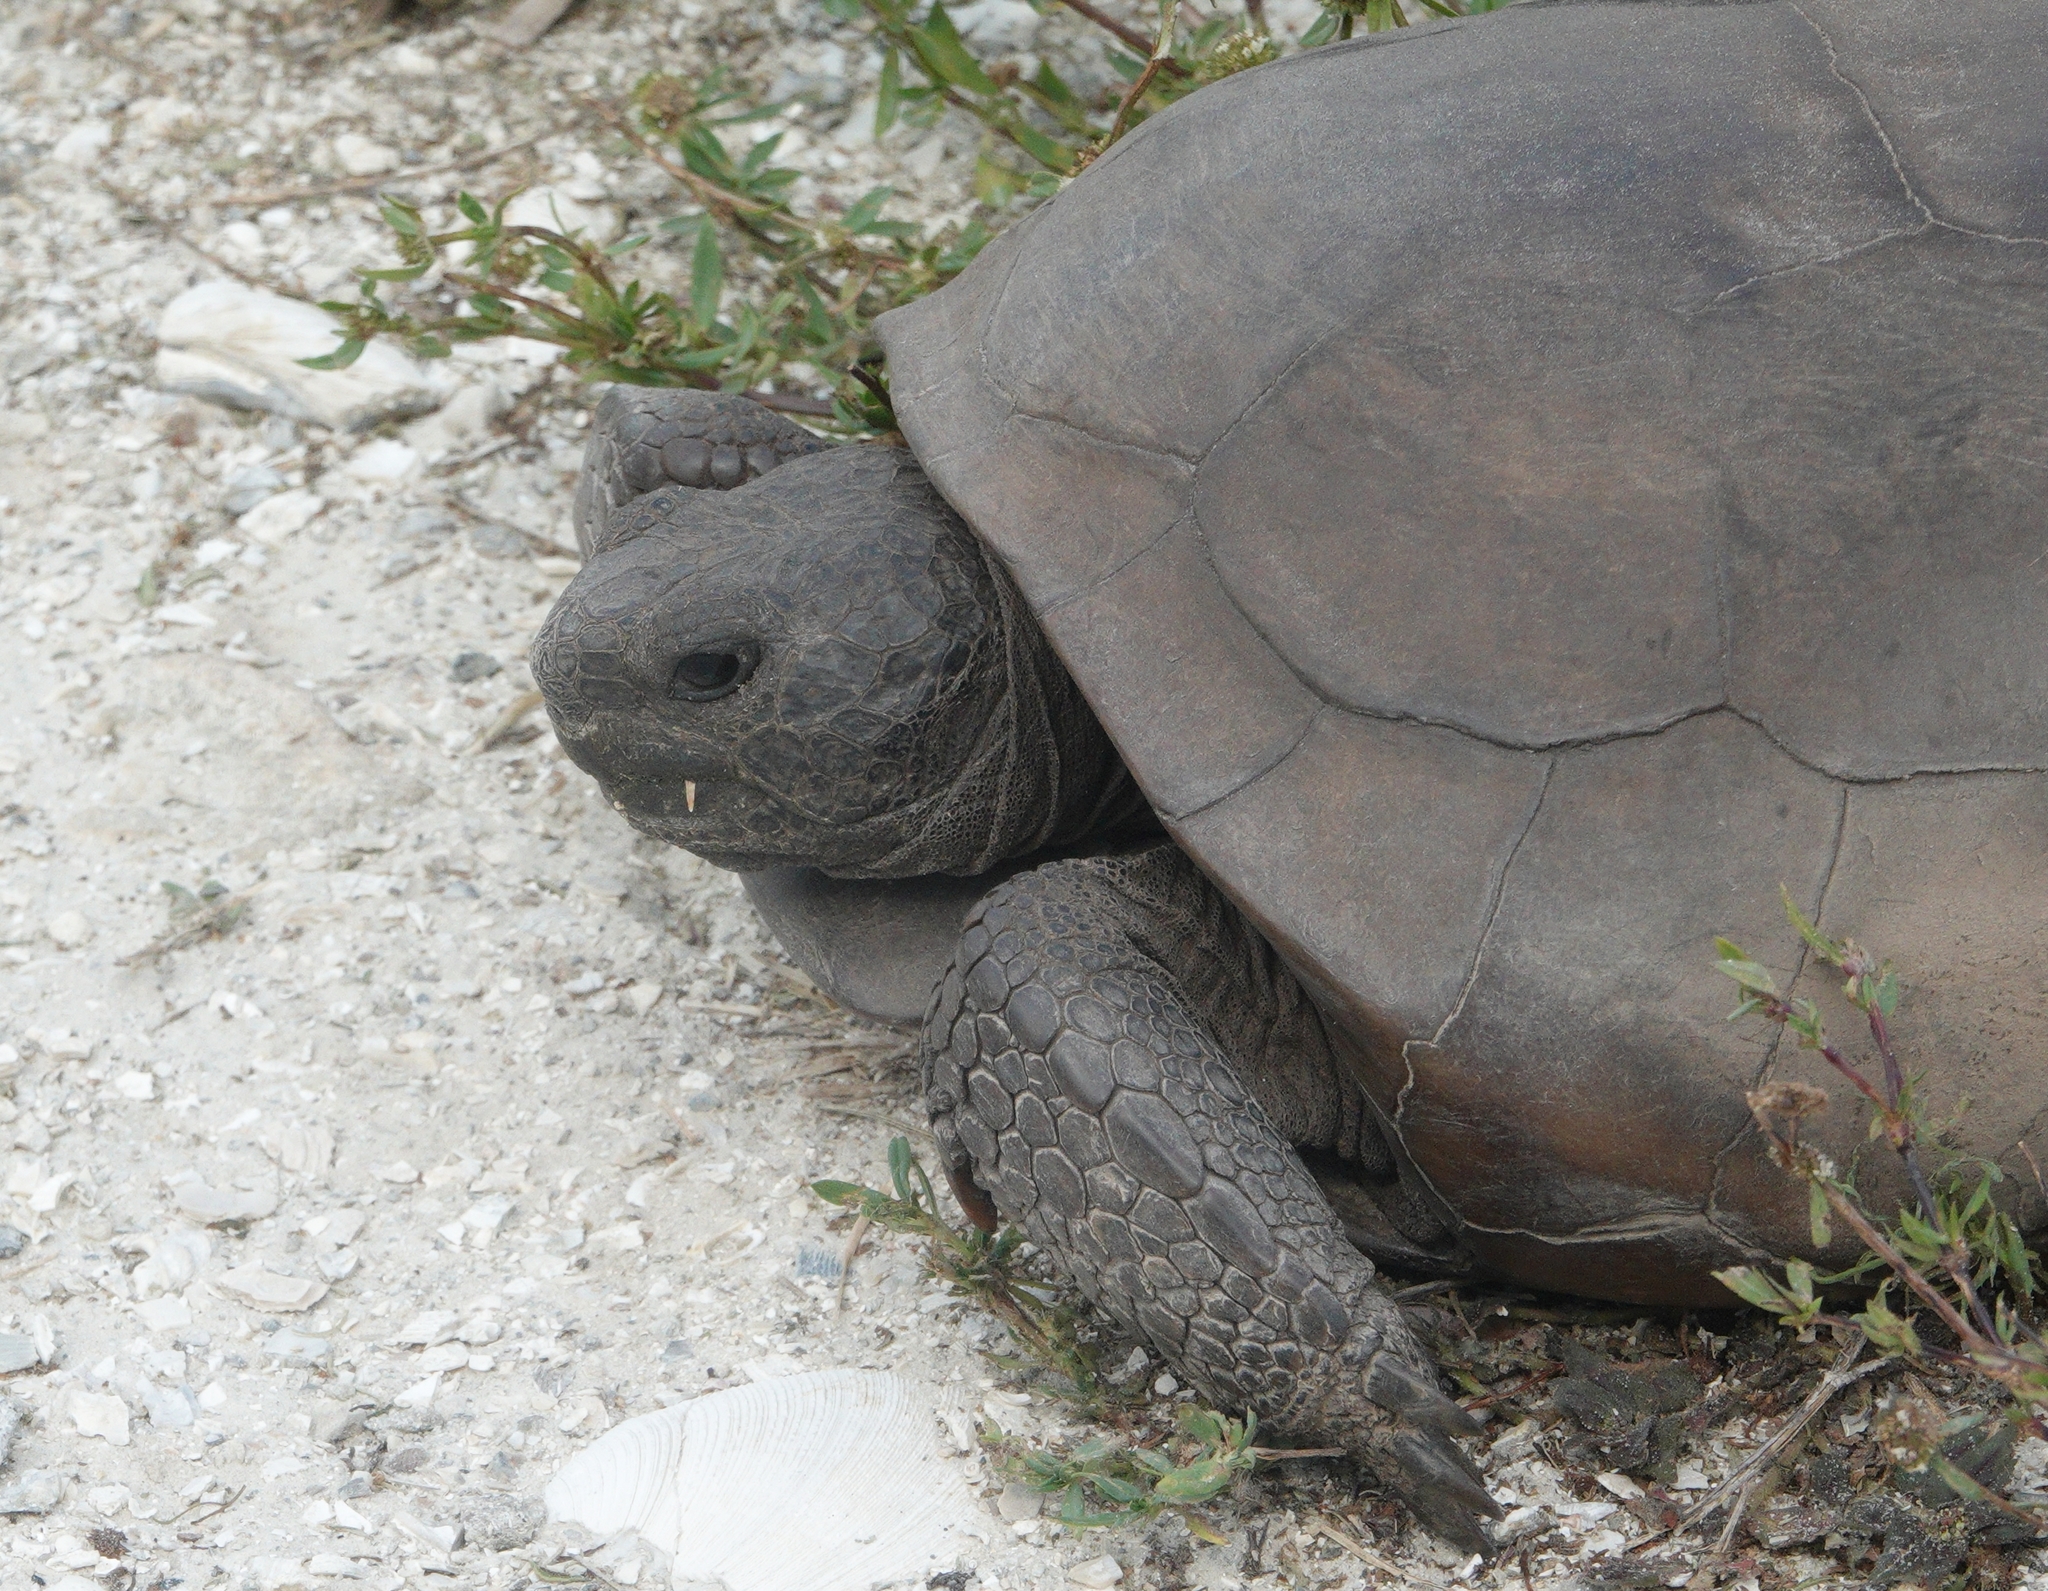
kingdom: Animalia
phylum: Chordata
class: Testudines
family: Testudinidae
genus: Gopherus
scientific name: Gopherus polyphemus
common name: Florida gopher tortoise
